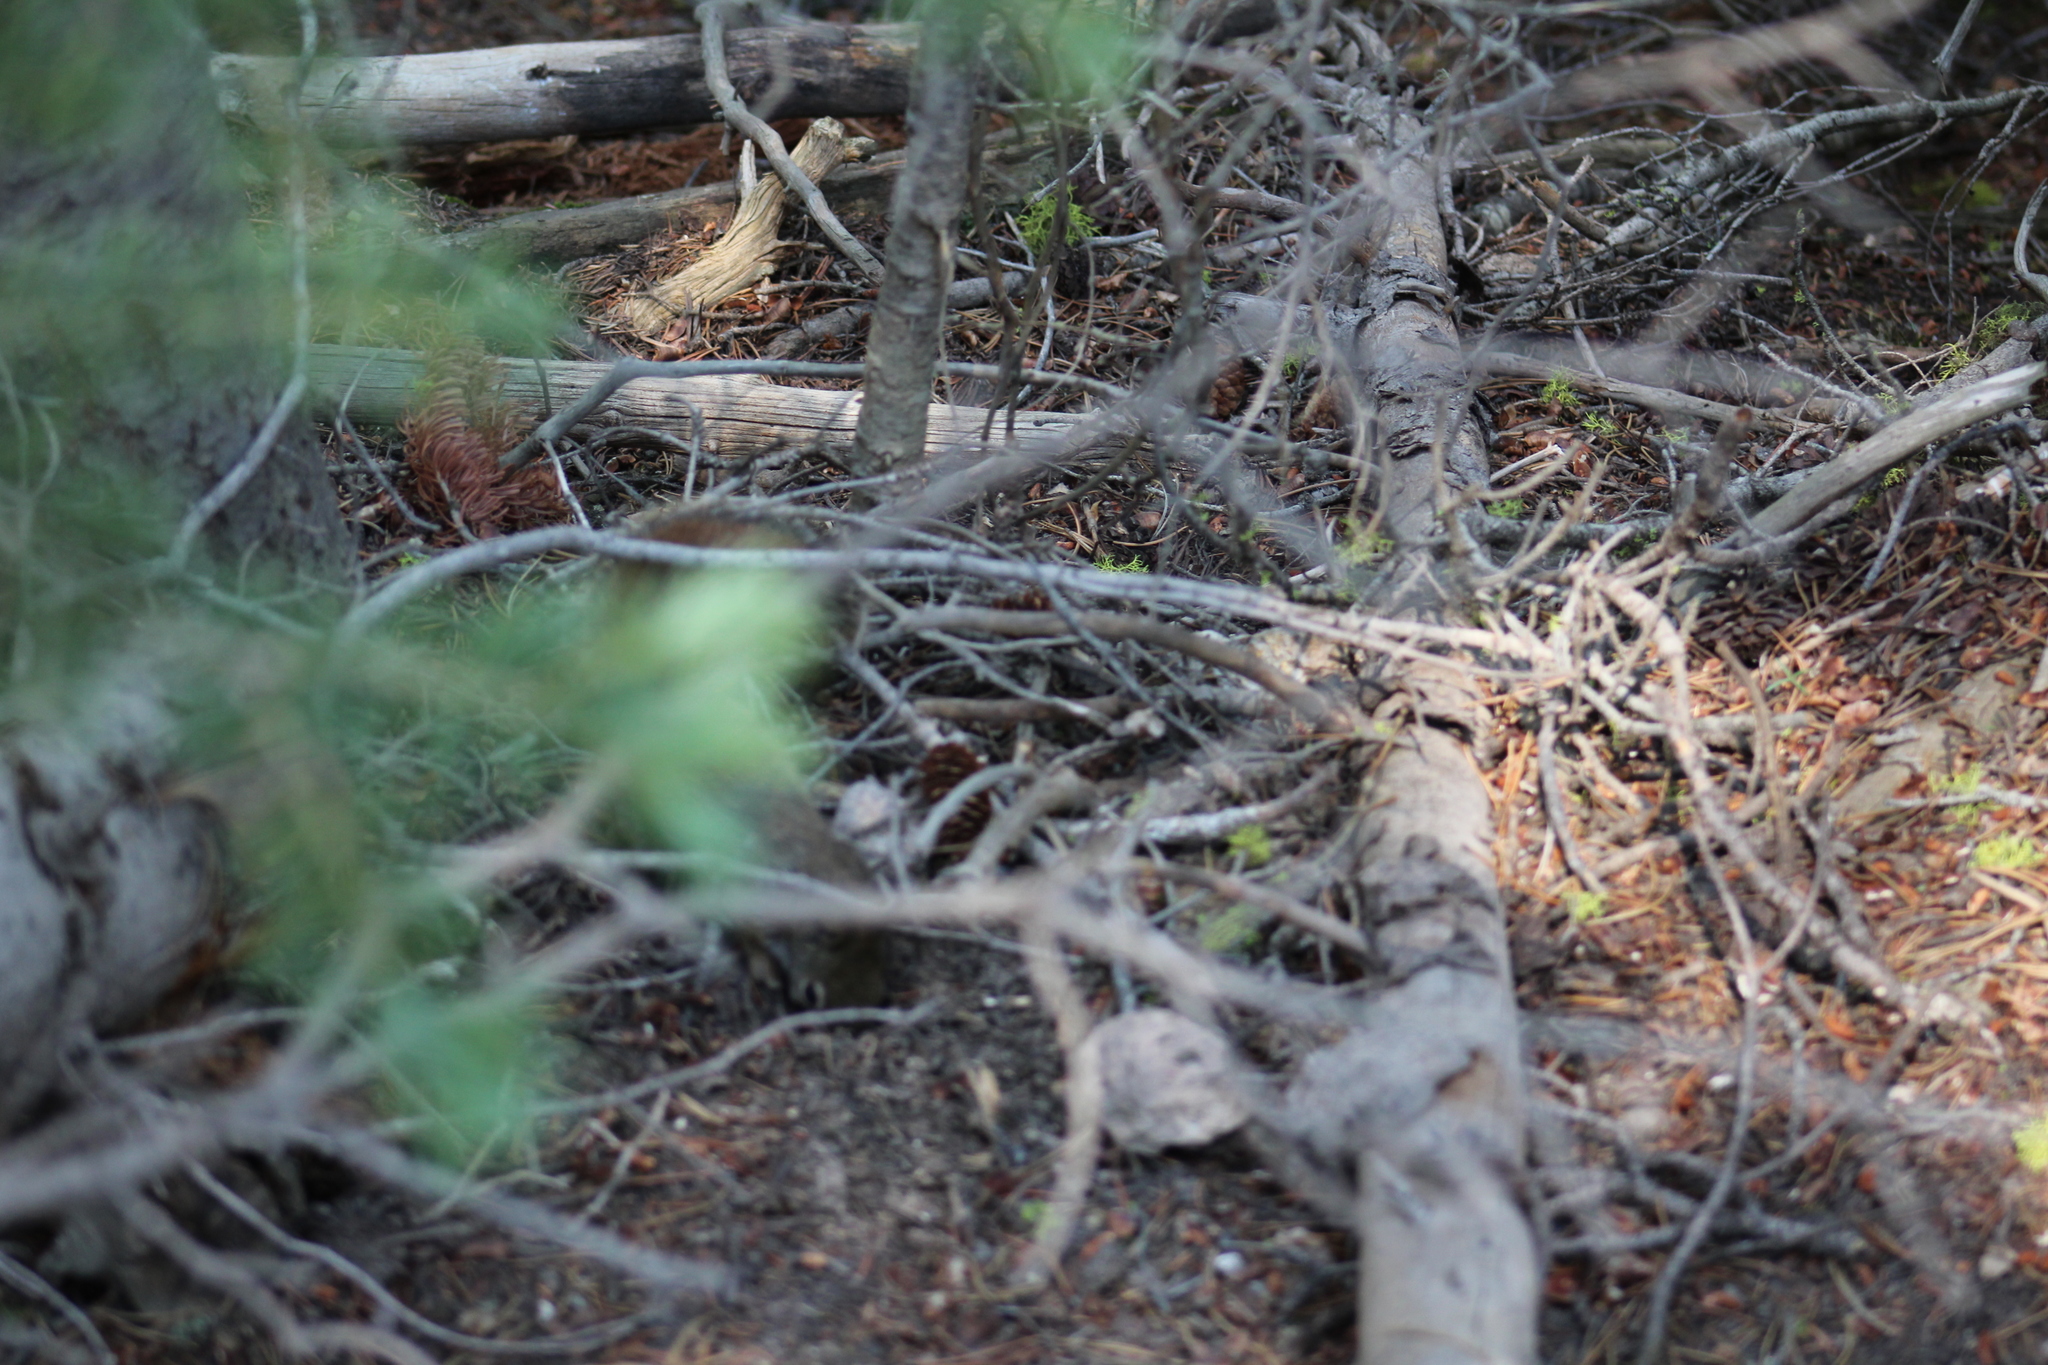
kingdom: Animalia
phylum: Chordata
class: Mammalia
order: Rodentia
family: Sciuridae
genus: Tamiasciurus
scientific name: Tamiasciurus hudsonicus
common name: Red squirrel
